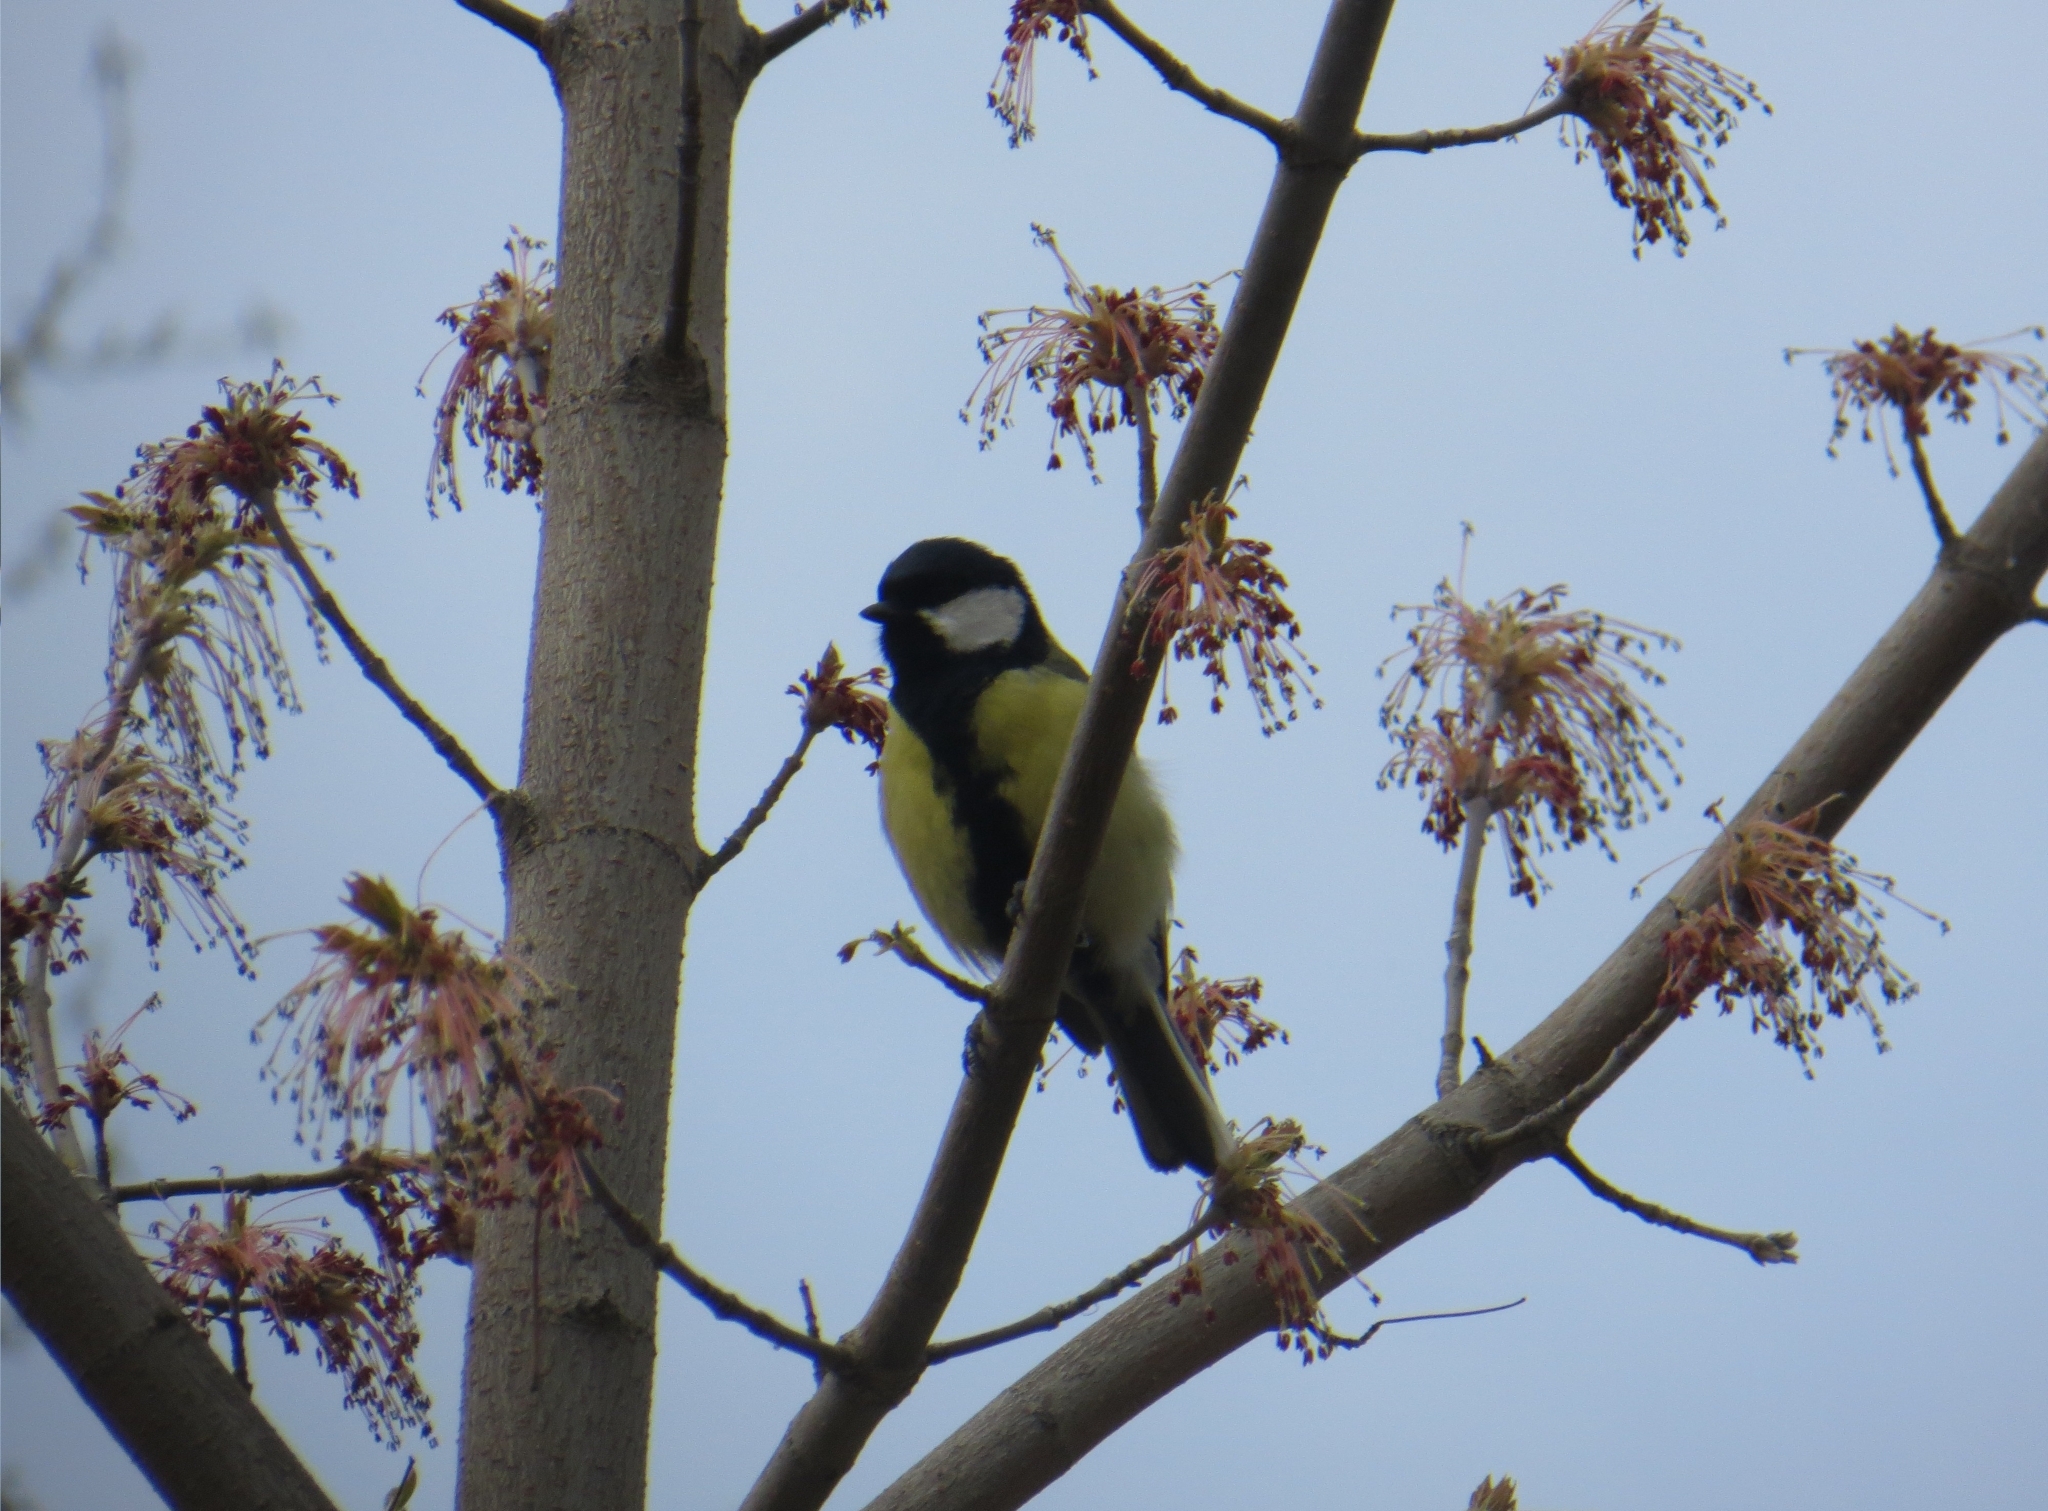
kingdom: Animalia
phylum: Chordata
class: Aves
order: Passeriformes
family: Paridae
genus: Parus
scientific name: Parus major
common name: Great tit
